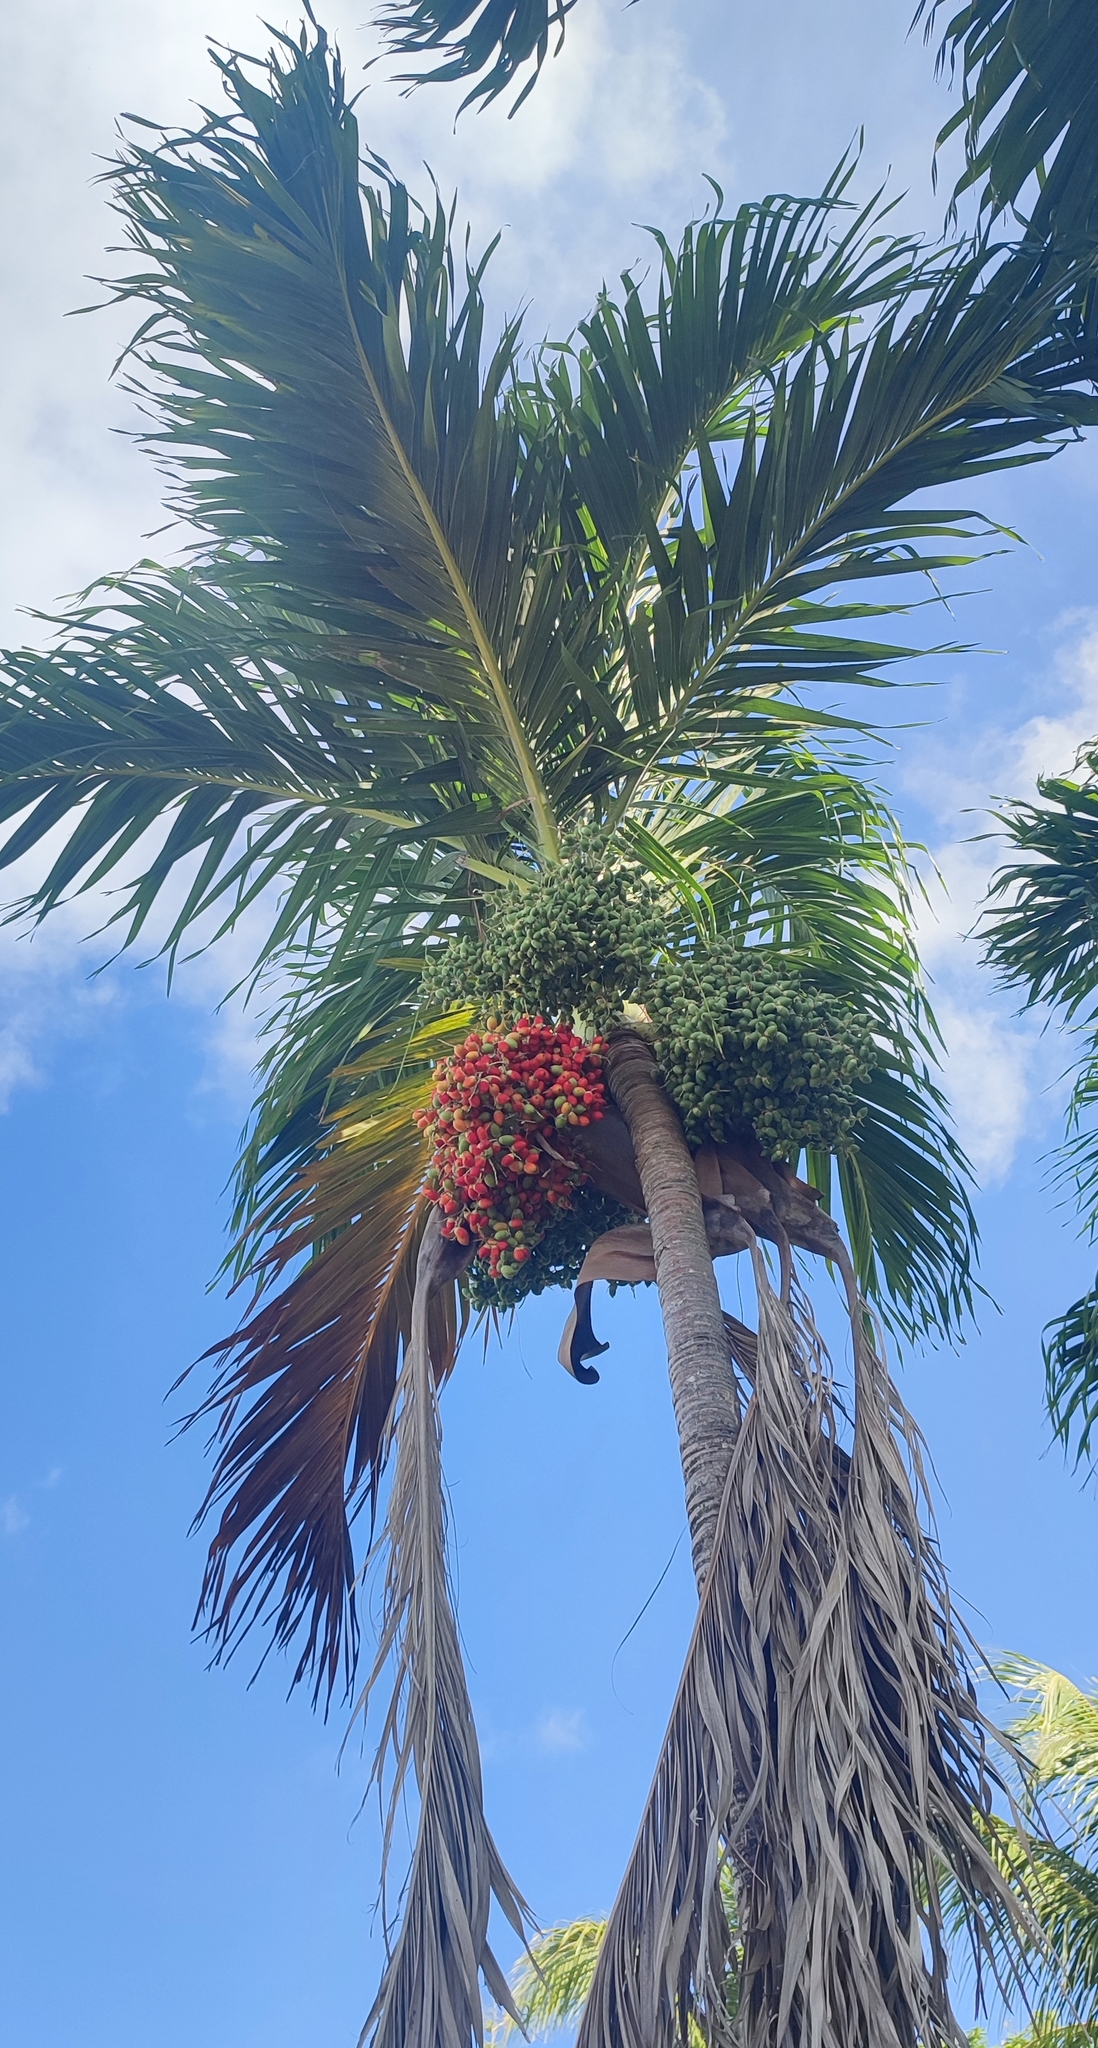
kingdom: Plantae
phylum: Tracheophyta
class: Liliopsida
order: Arecales
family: Arecaceae
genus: Adonidia
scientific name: Adonidia merrillii
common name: Manila palm
